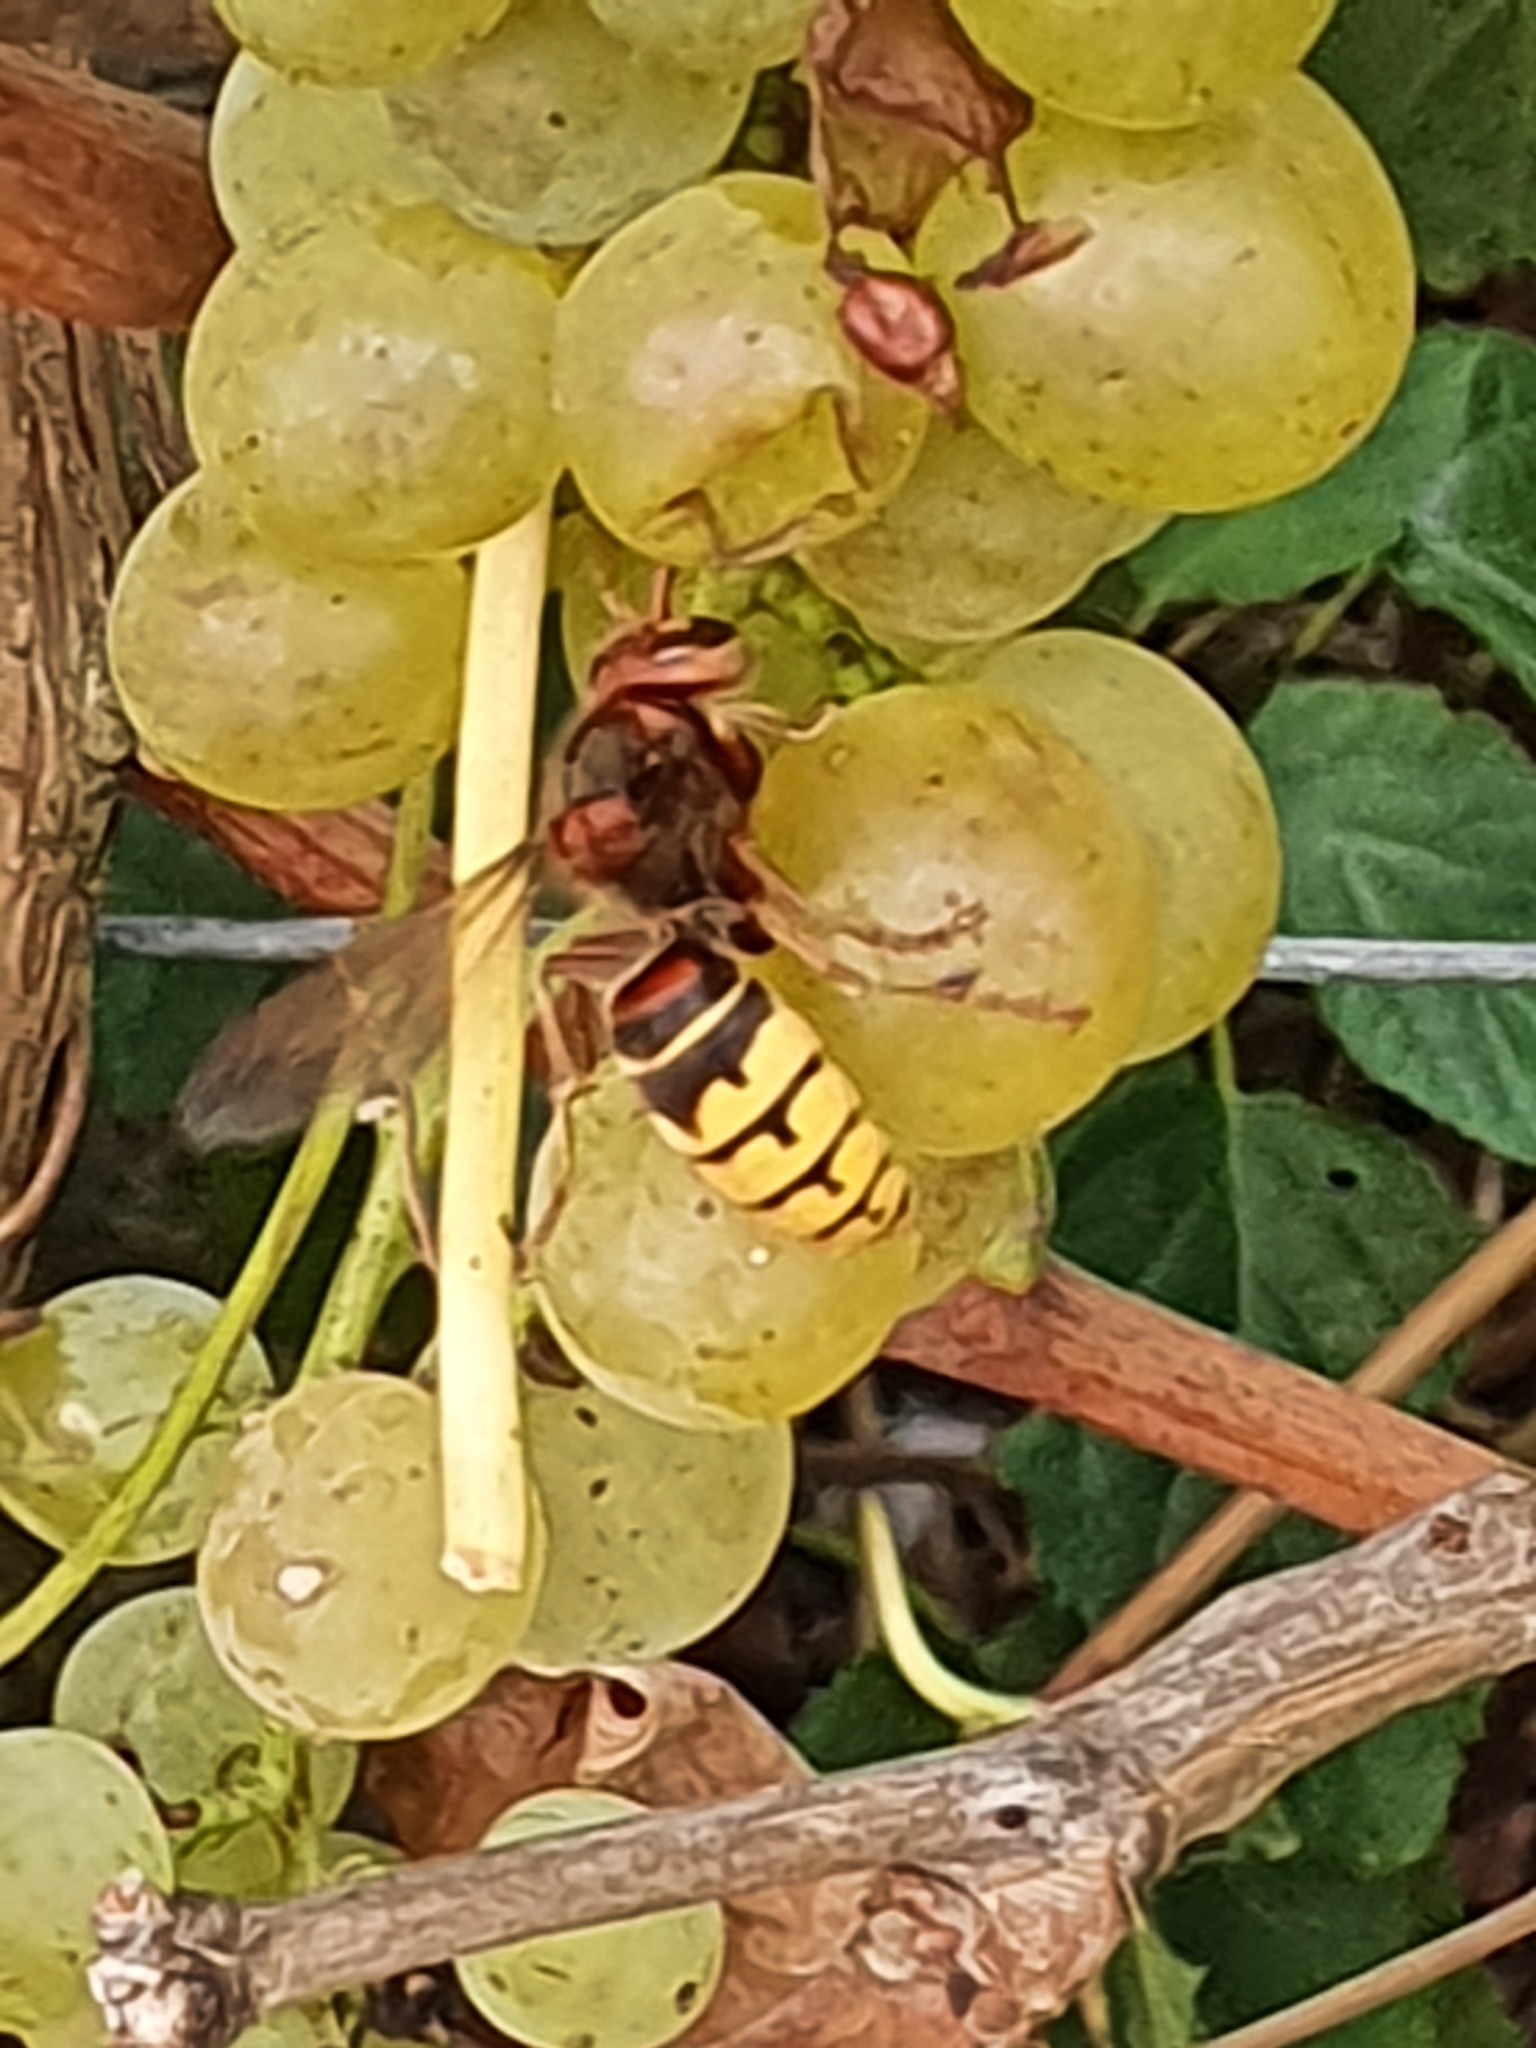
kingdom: Animalia
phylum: Arthropoda
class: Insecta
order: Hymenoptera
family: Vespidae
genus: Vespa
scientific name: Vespa crabro
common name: Hornet
